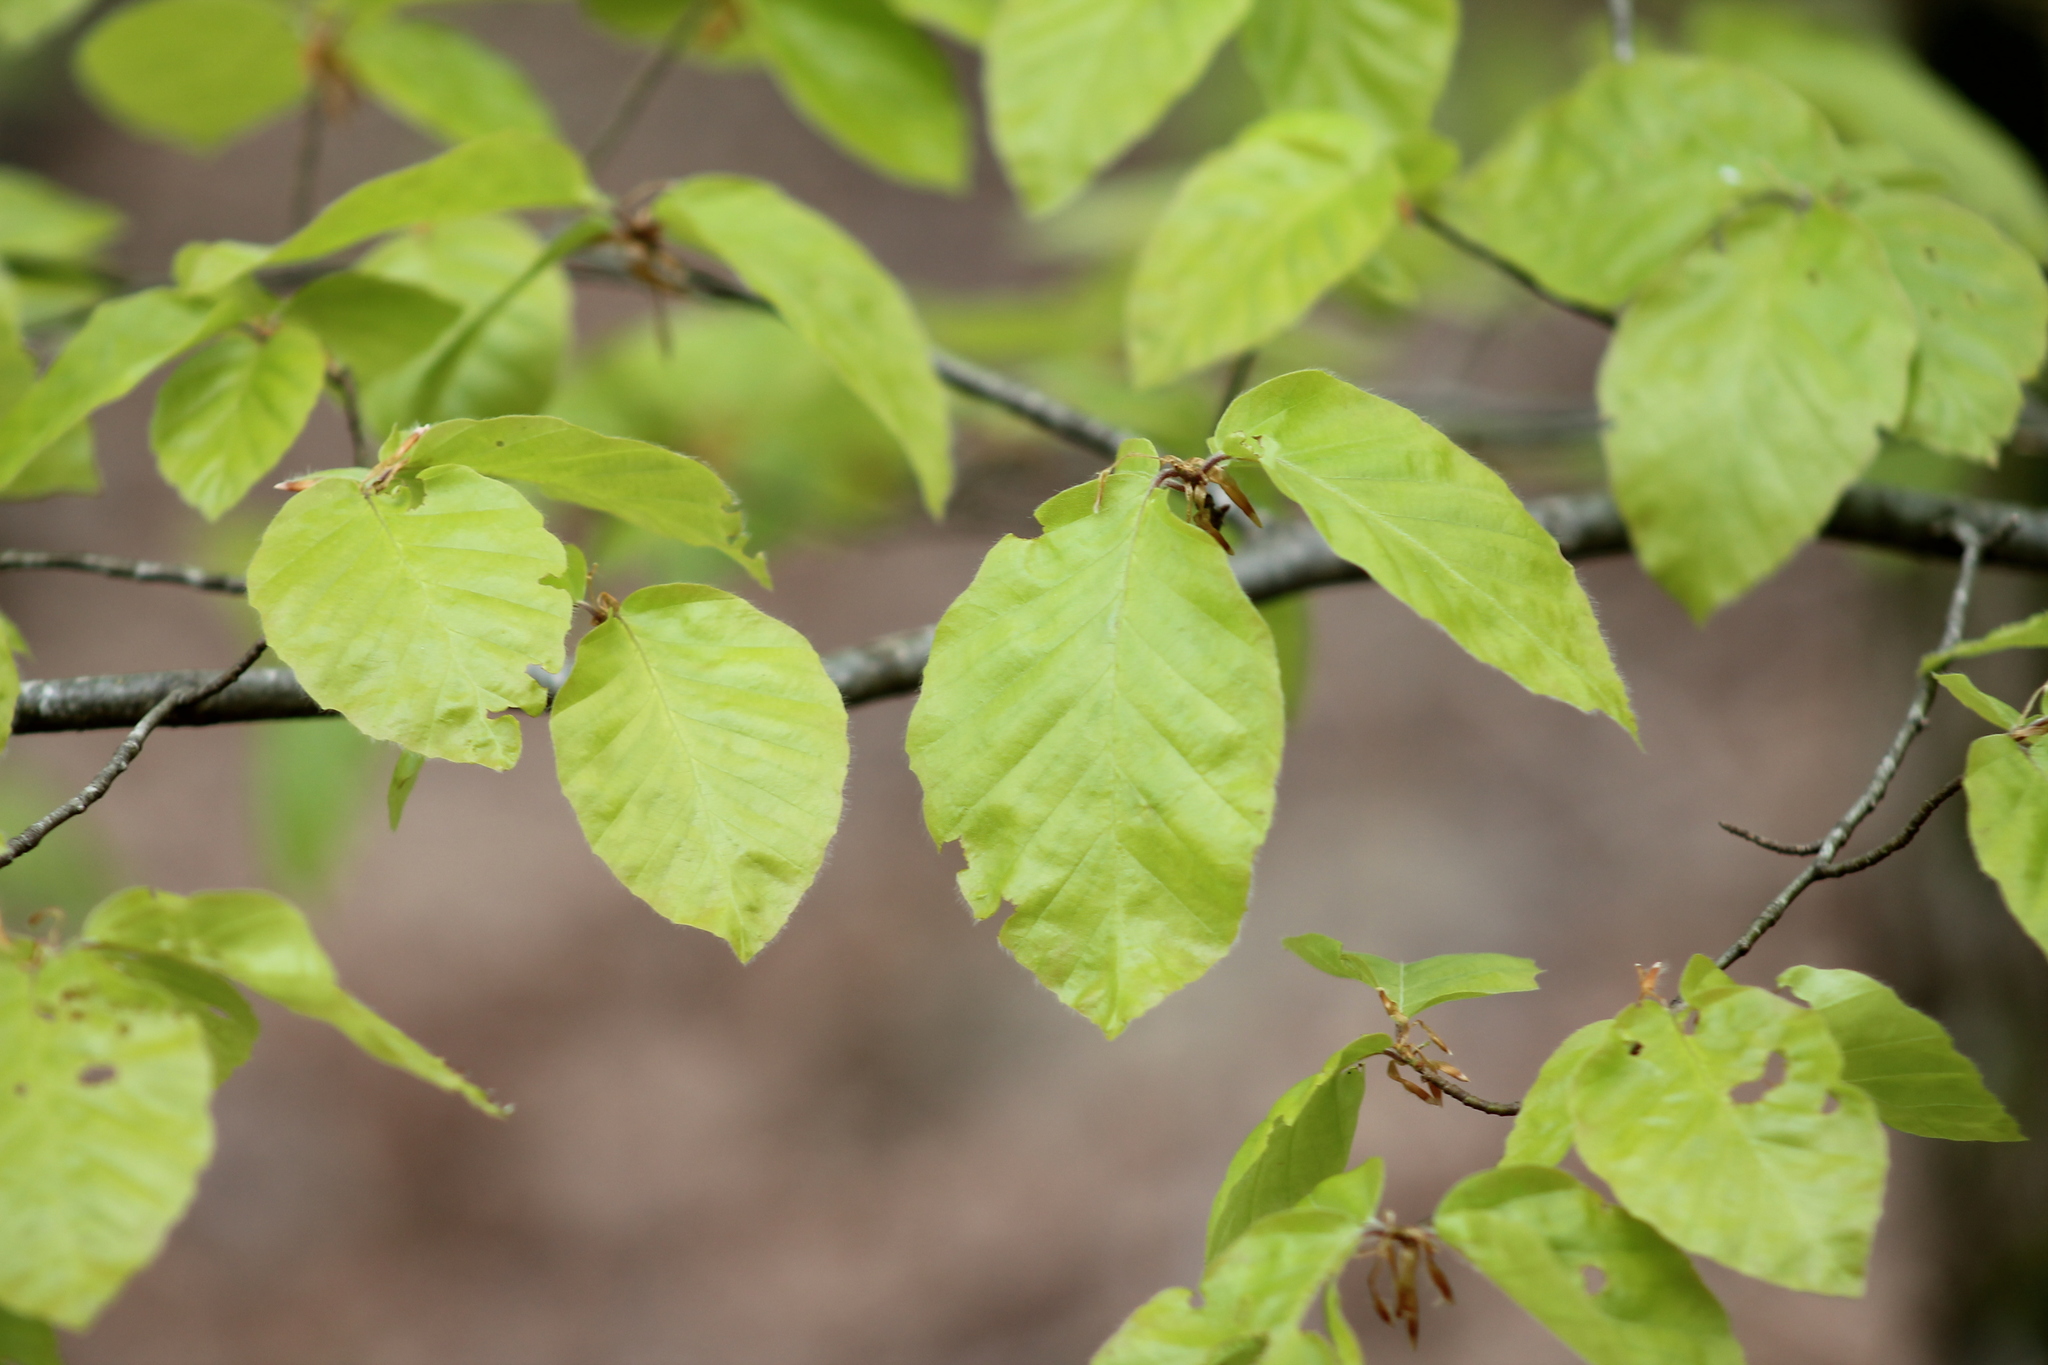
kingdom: Plantae
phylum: Tracheophyta
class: Magnoliopsida
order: Fagales
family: Fagaceae
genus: Fagus
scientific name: Fagus sylvatica
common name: Beech
